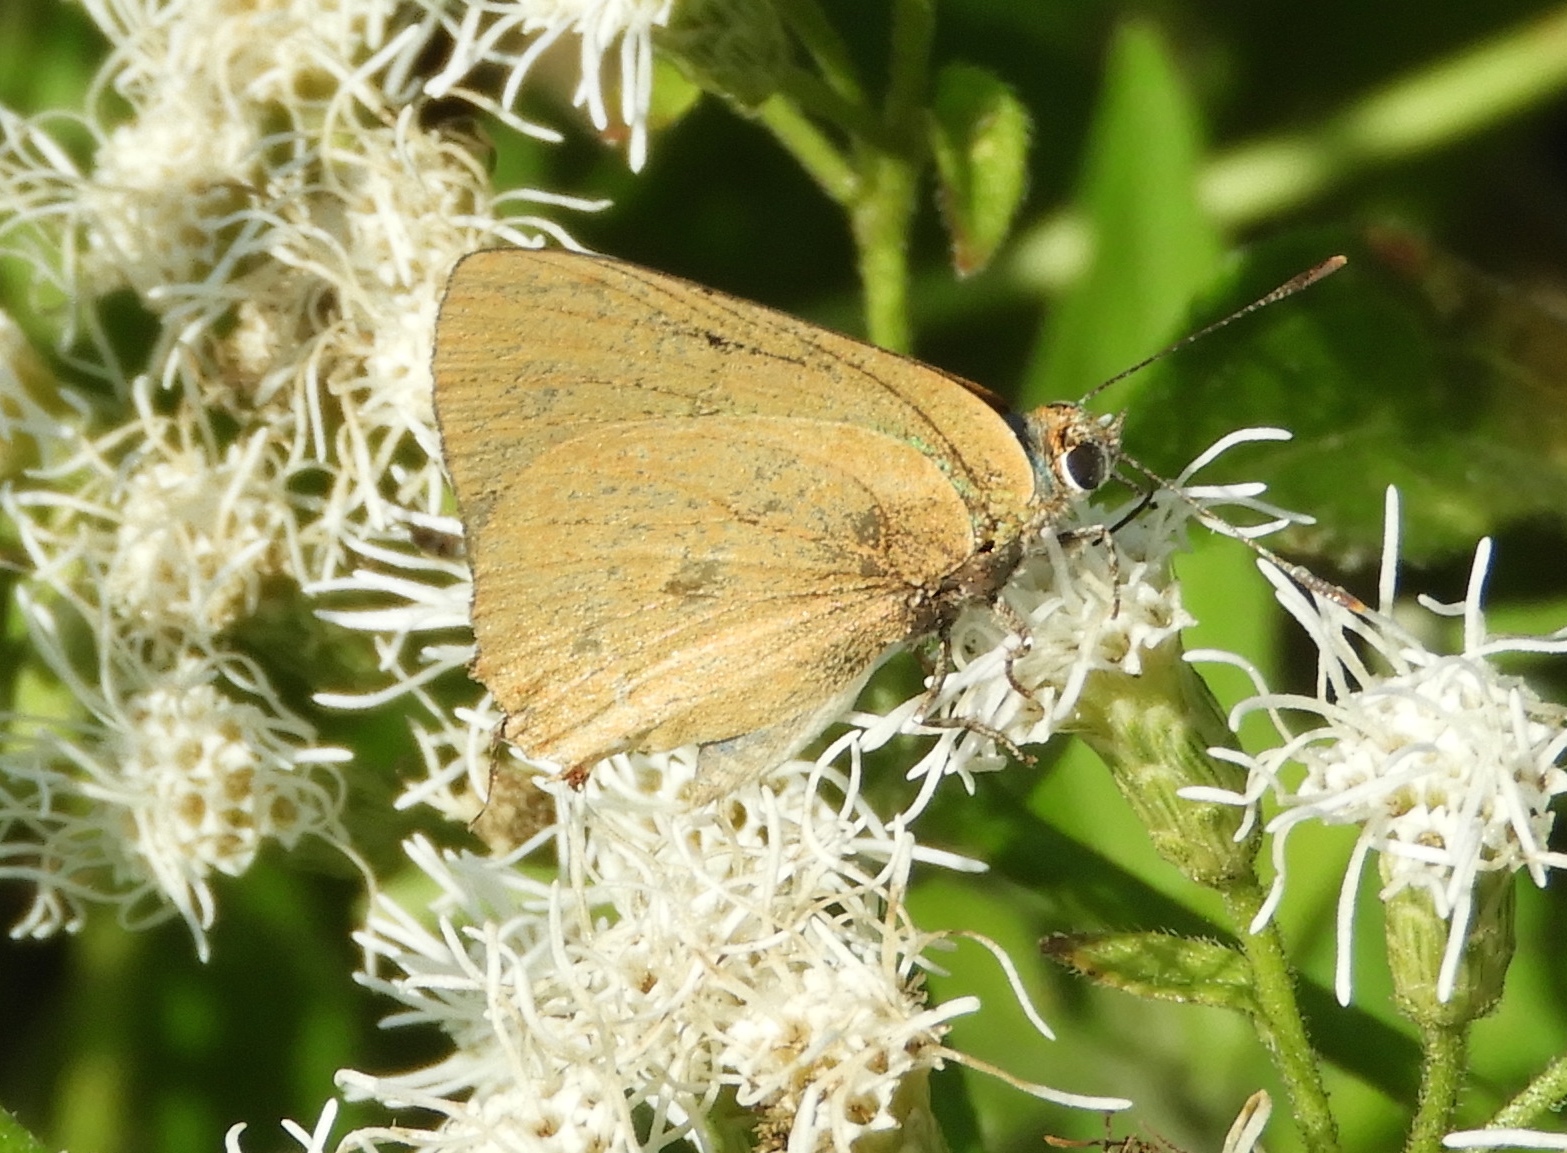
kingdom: Animalia
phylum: Arthropoda
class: Insecta
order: Lepidoptera
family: Lycaenidae
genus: Cyanophrys
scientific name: Cyanophrys
